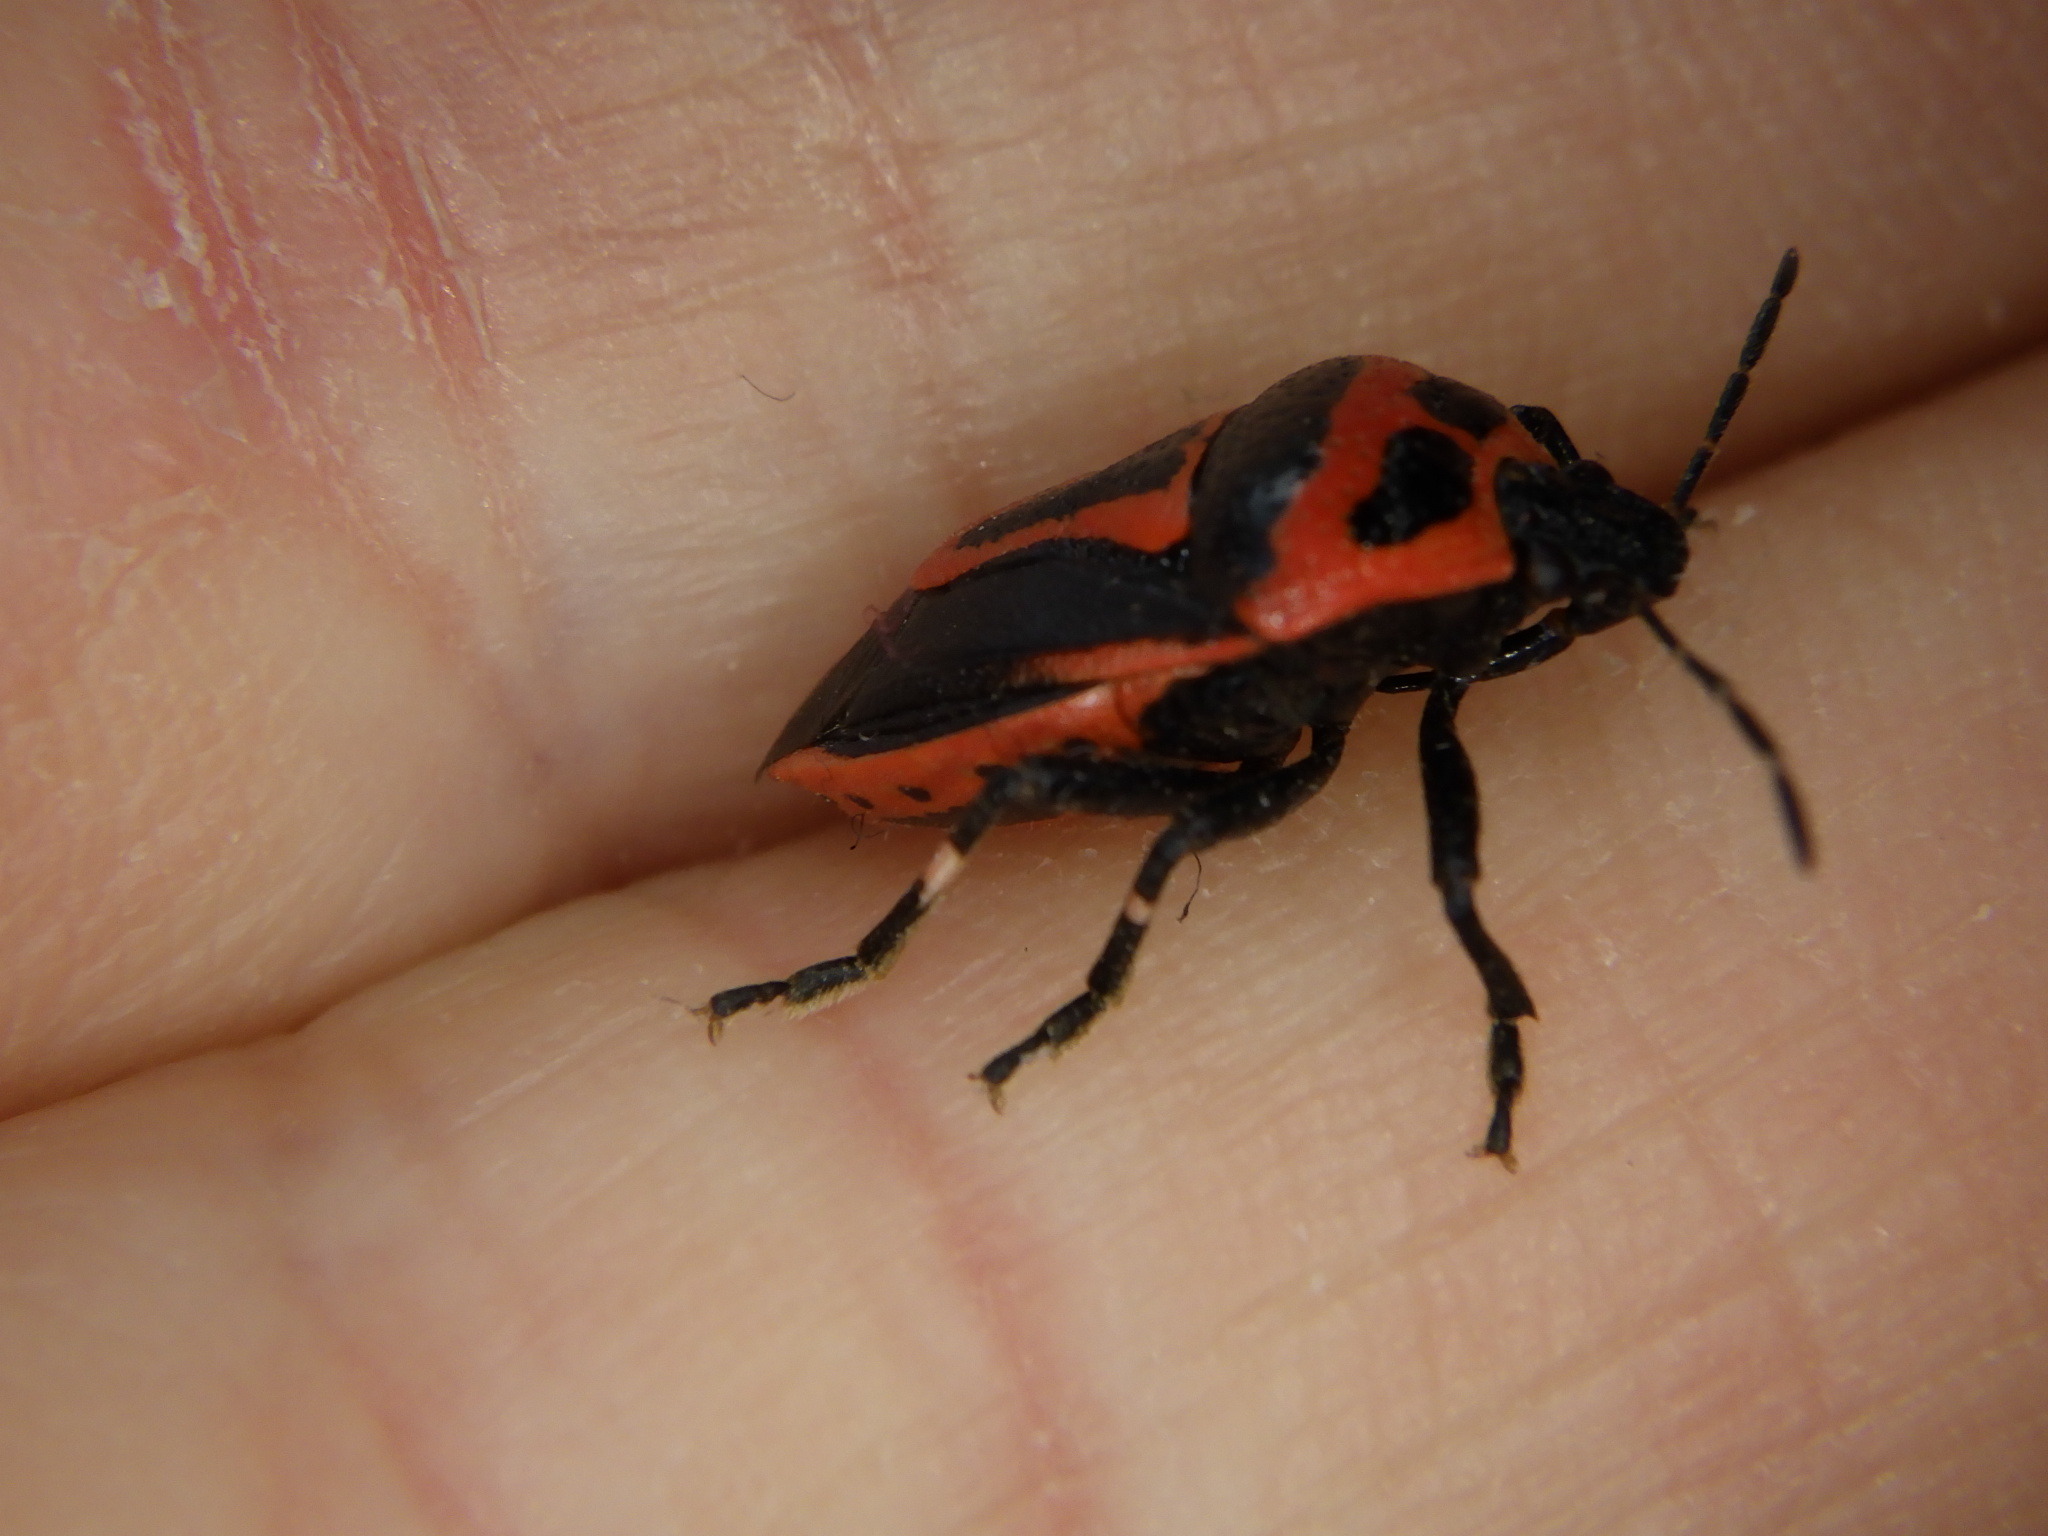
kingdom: Animalia
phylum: Arthropoda
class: Insecta
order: Hemiptera
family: Pentatomidae
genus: Perillus
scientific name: Perillus bioculatus
